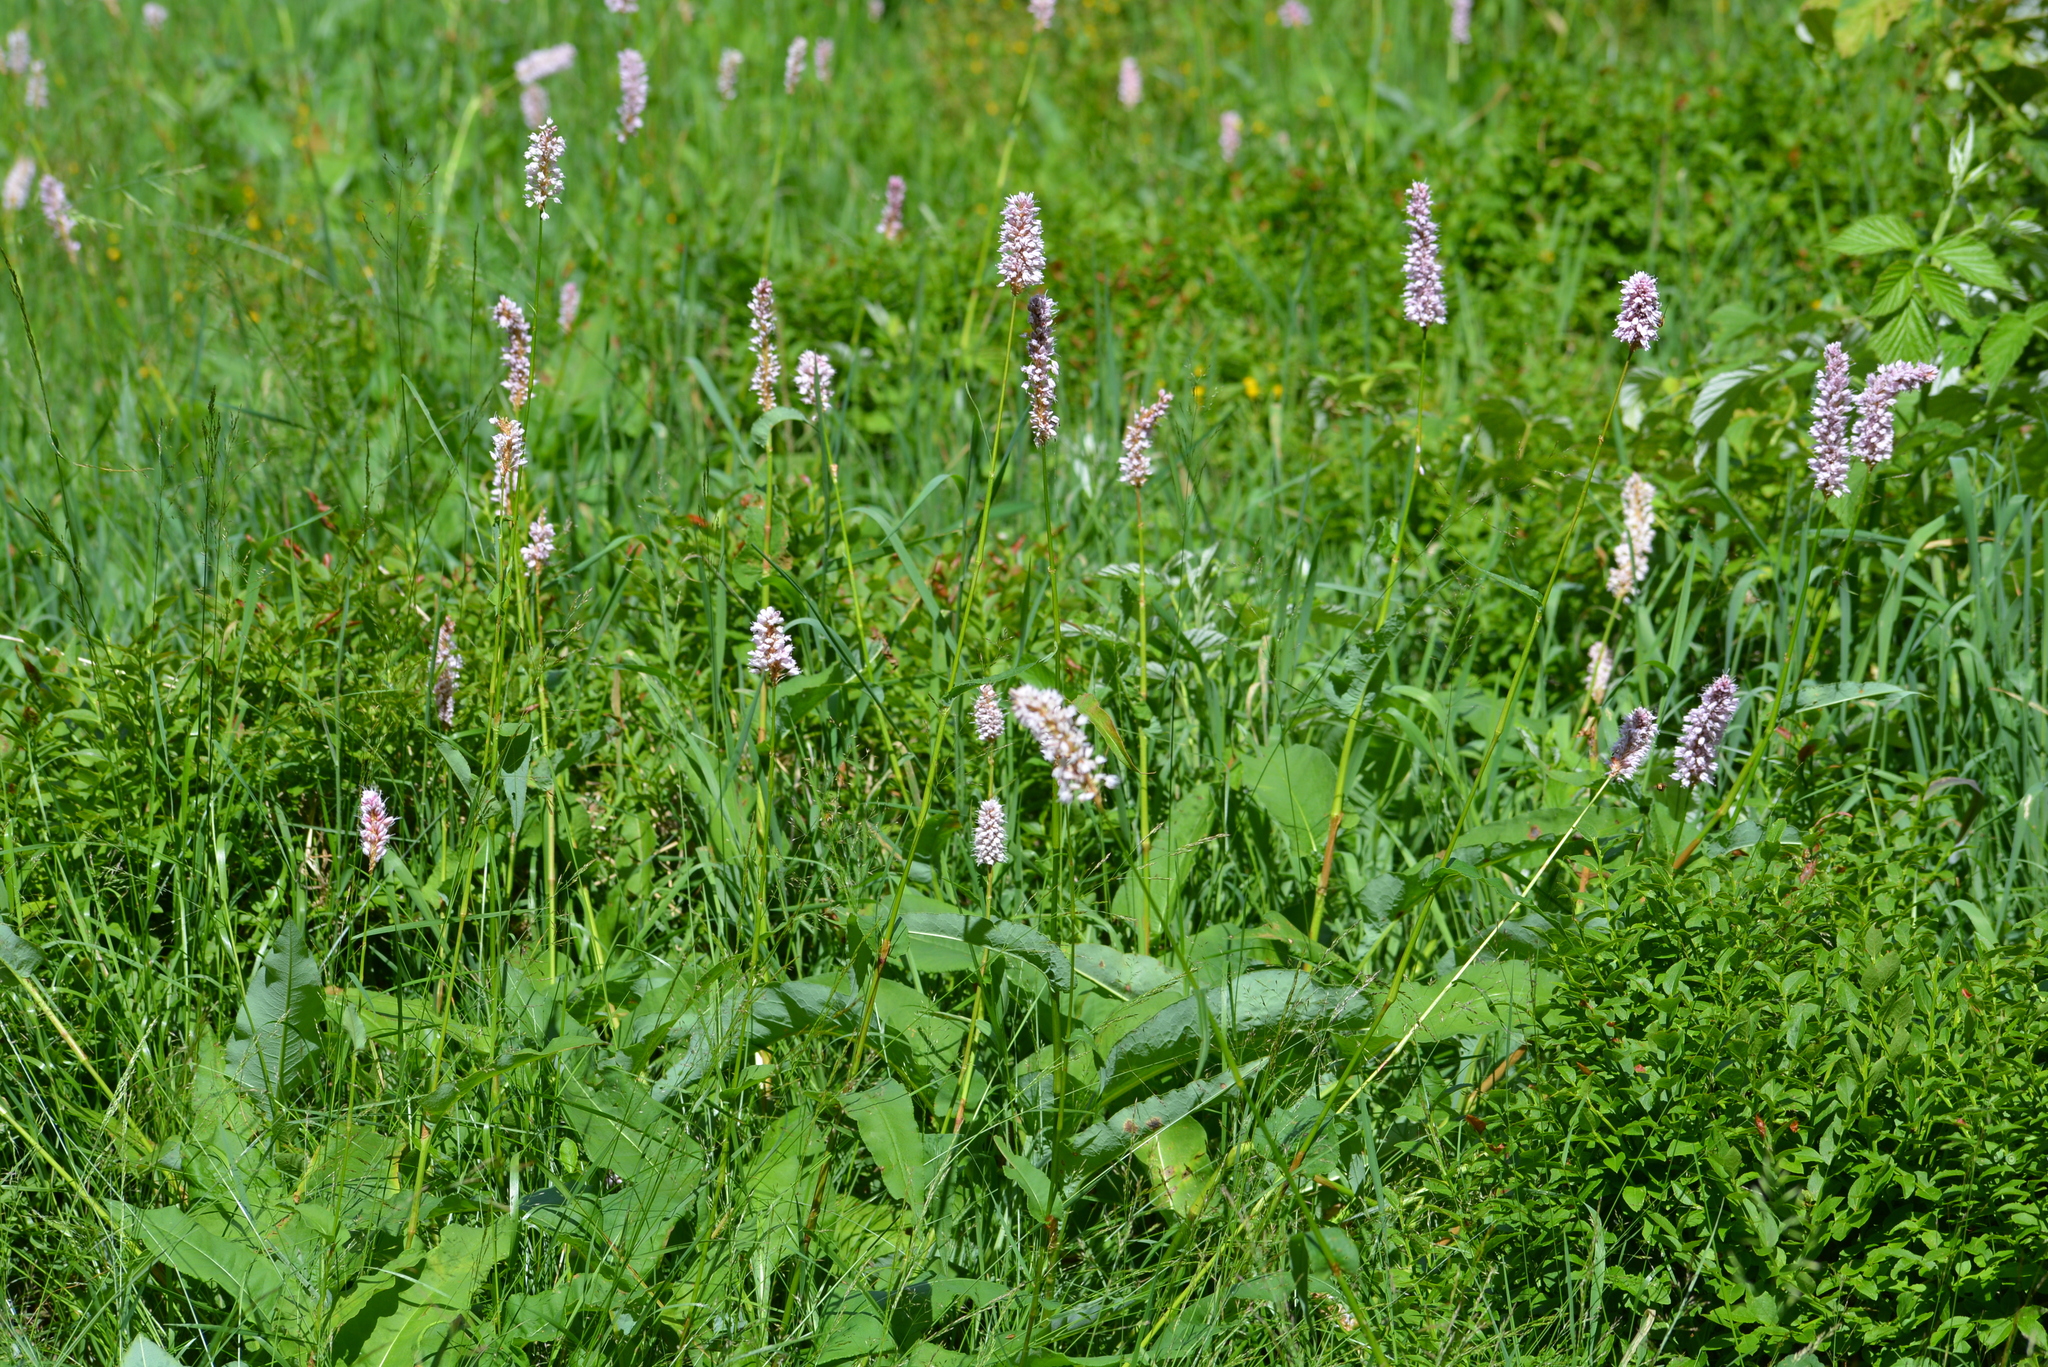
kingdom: Plantae
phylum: Tracheophyta
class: Magnoliopsida
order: Caryophyllales
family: Polygonaceae
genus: Bistorta
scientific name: Bistorta officinalis
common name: Common bistort
